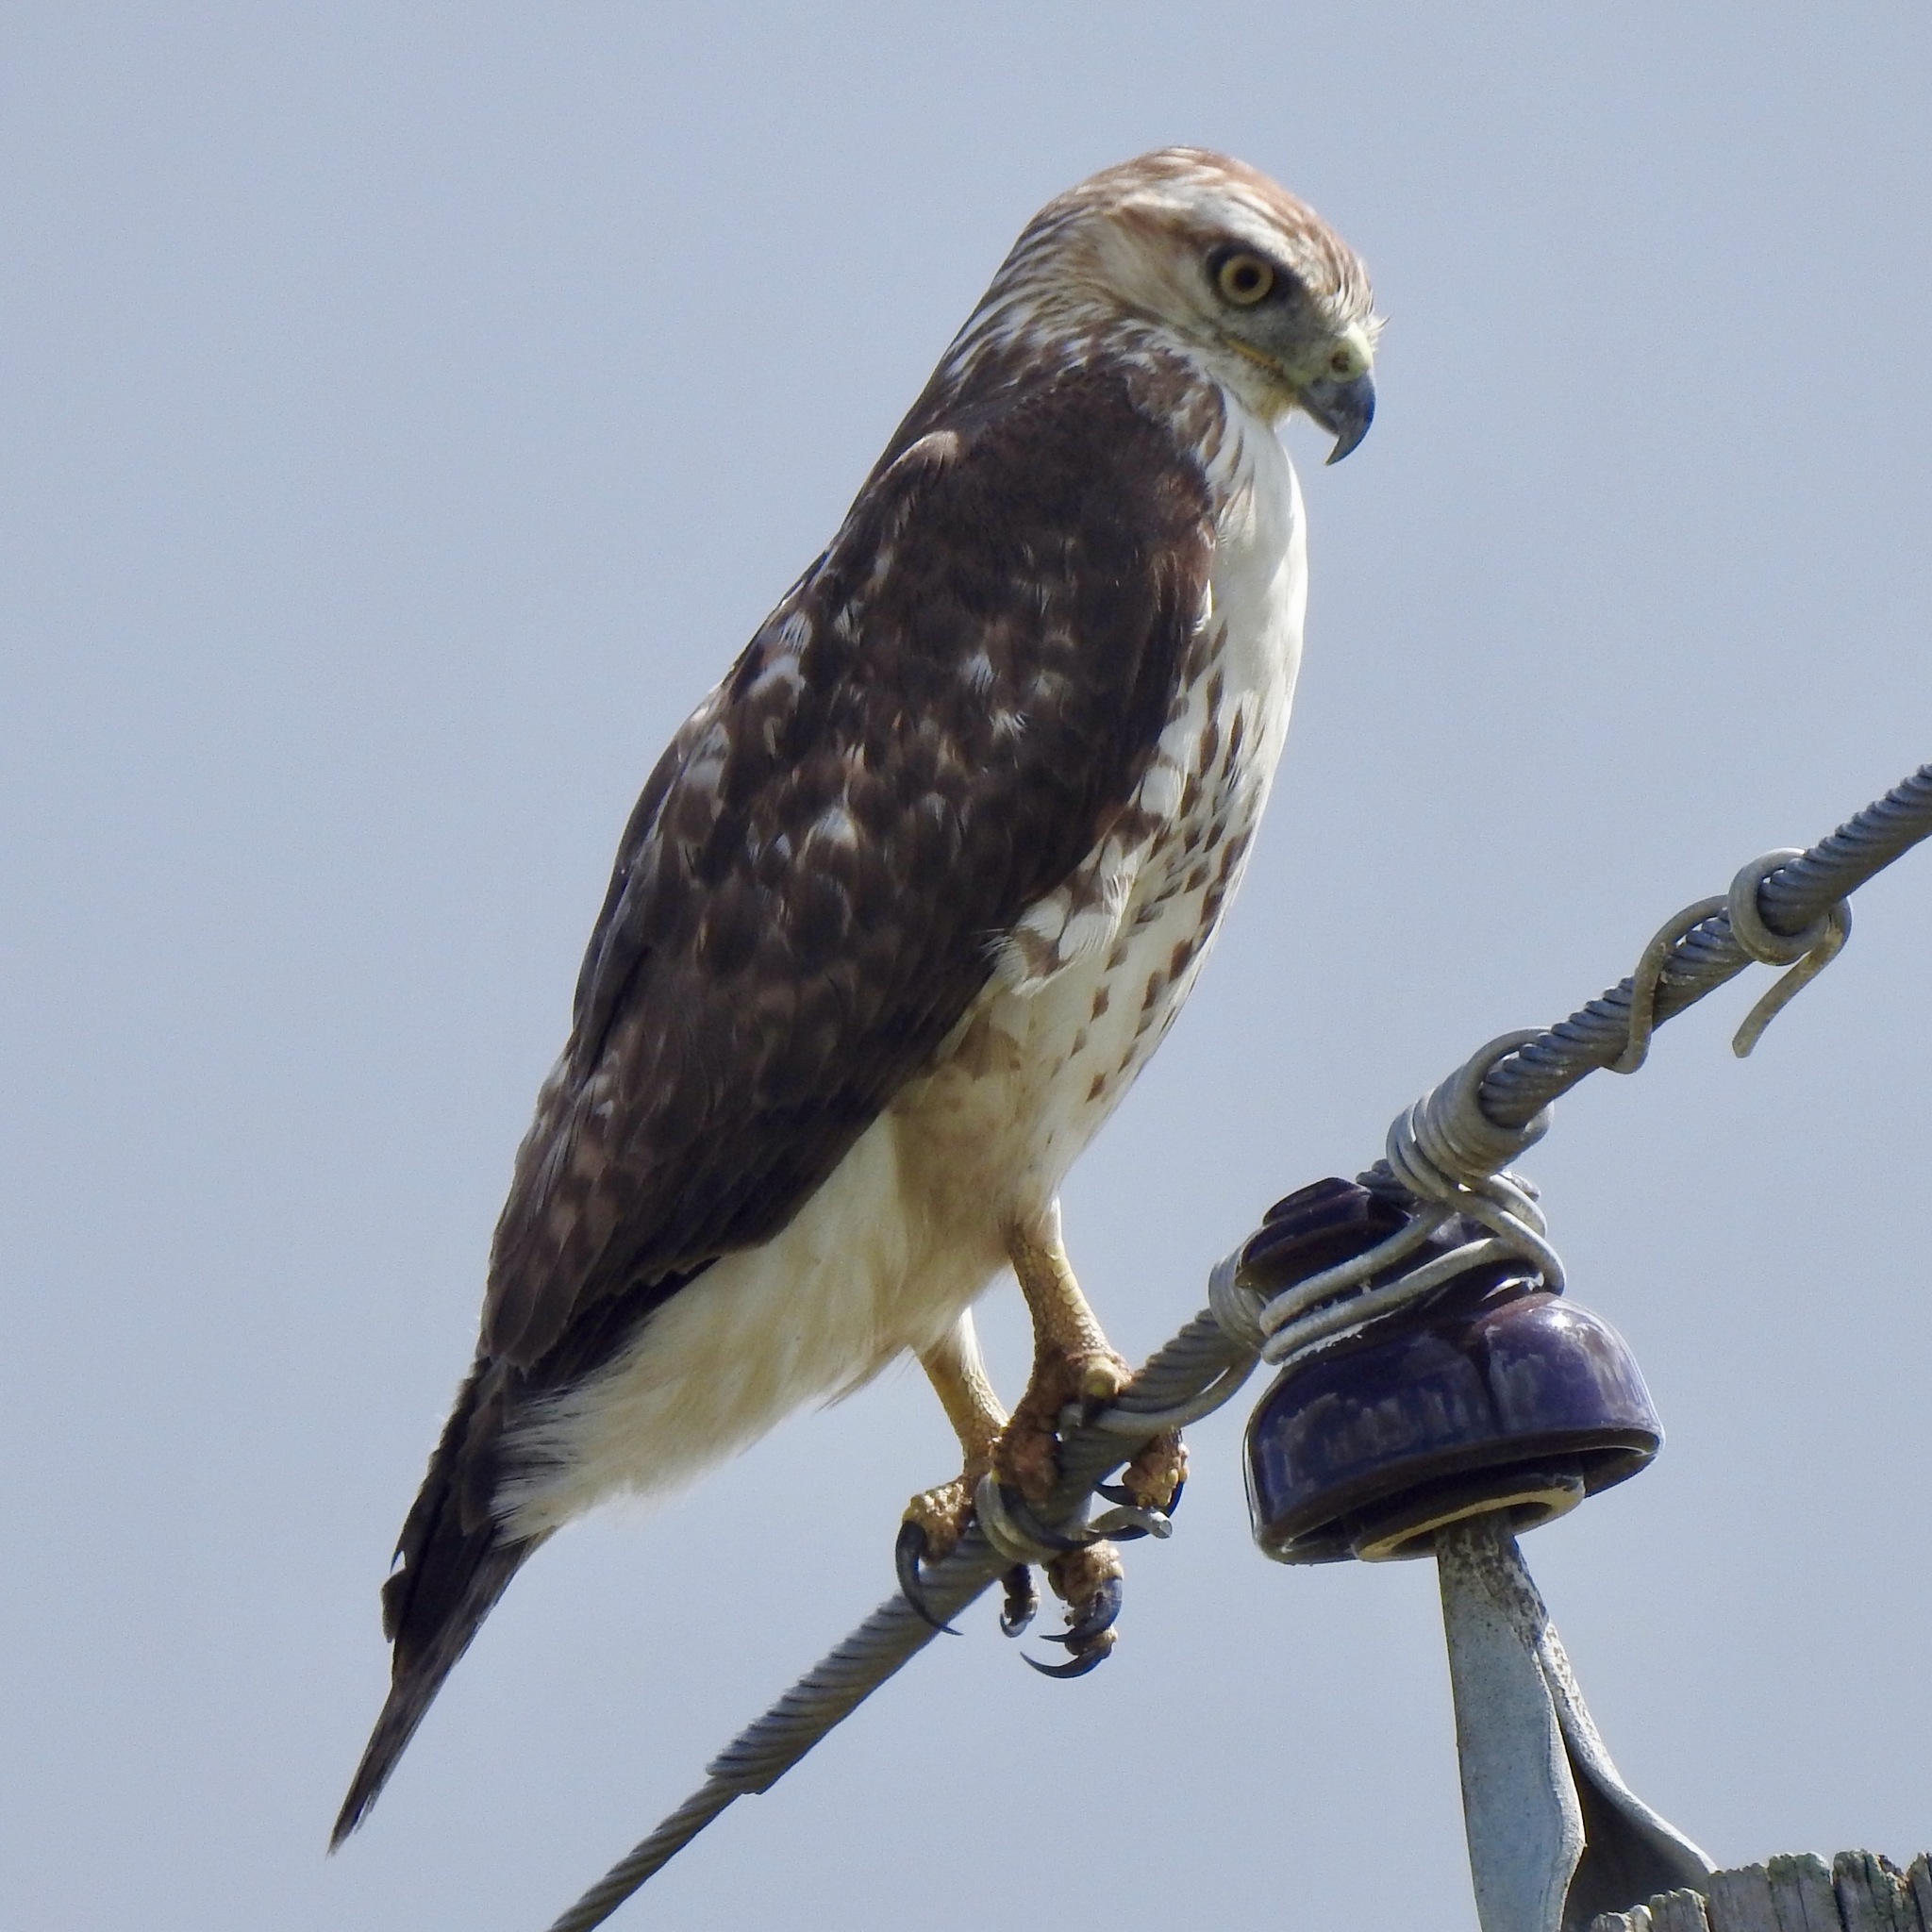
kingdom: Animalia
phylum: Chordata
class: Aves
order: Accipitriformes
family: Accipitridae
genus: Buteo
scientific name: Buteo jamaicensis
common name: Red-tailed hawk
